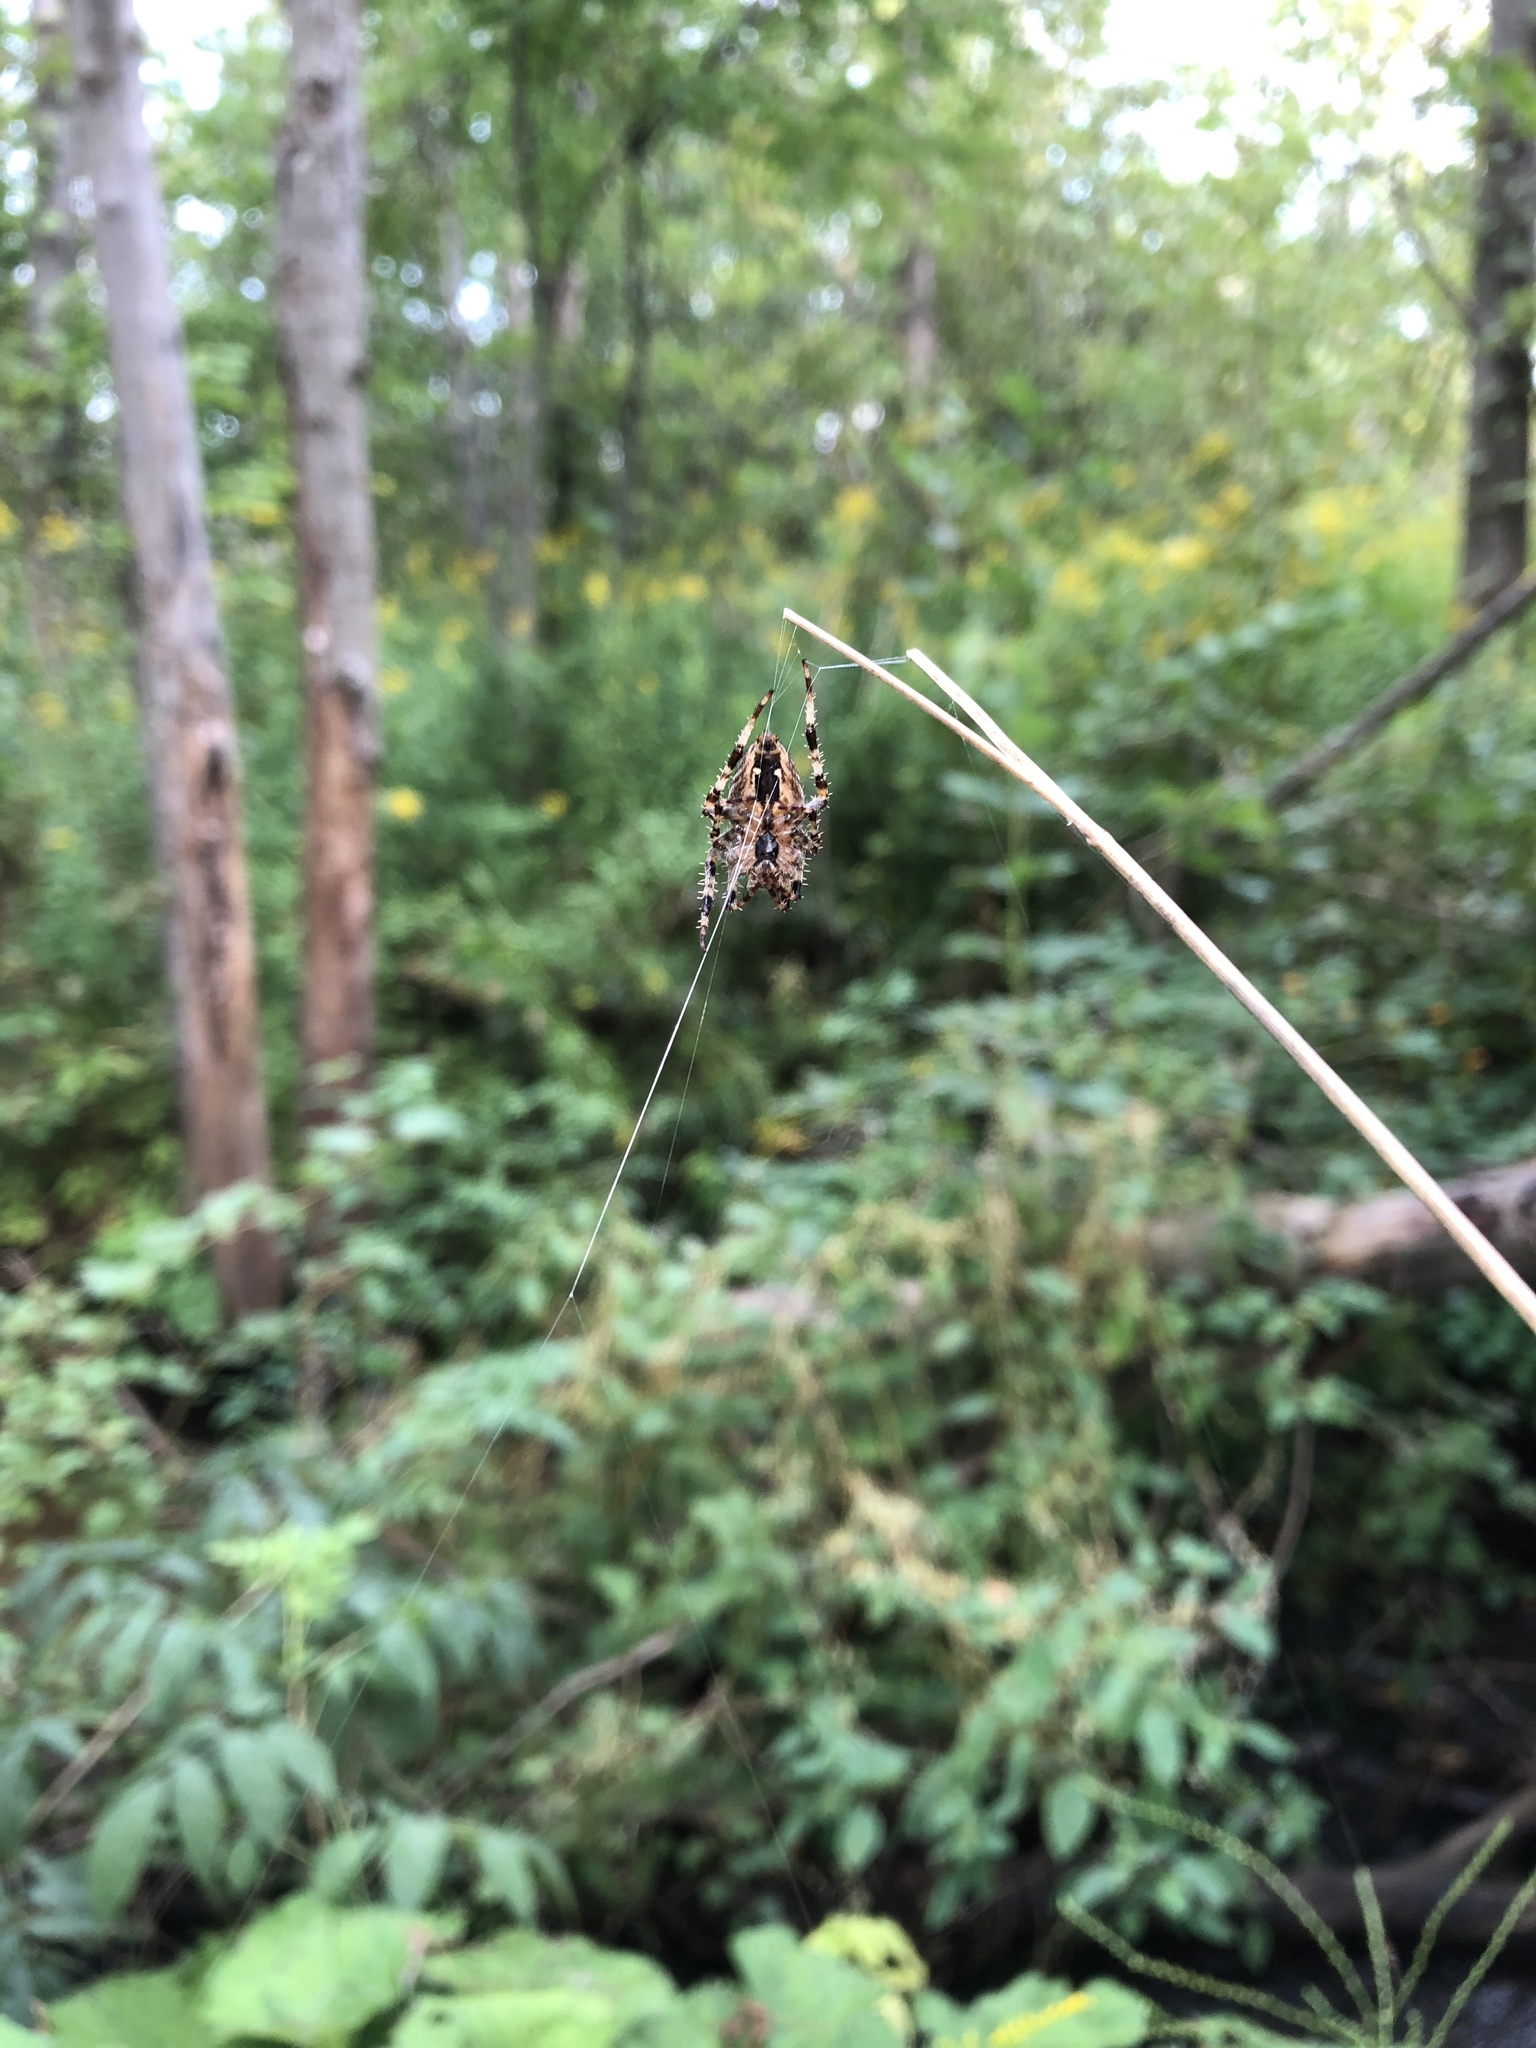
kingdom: Animalia
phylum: Arthropoda
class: Arachnida
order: Araneae
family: Araneidae
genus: Araneus
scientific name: Araneus diadematus
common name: Cross orbweaver
